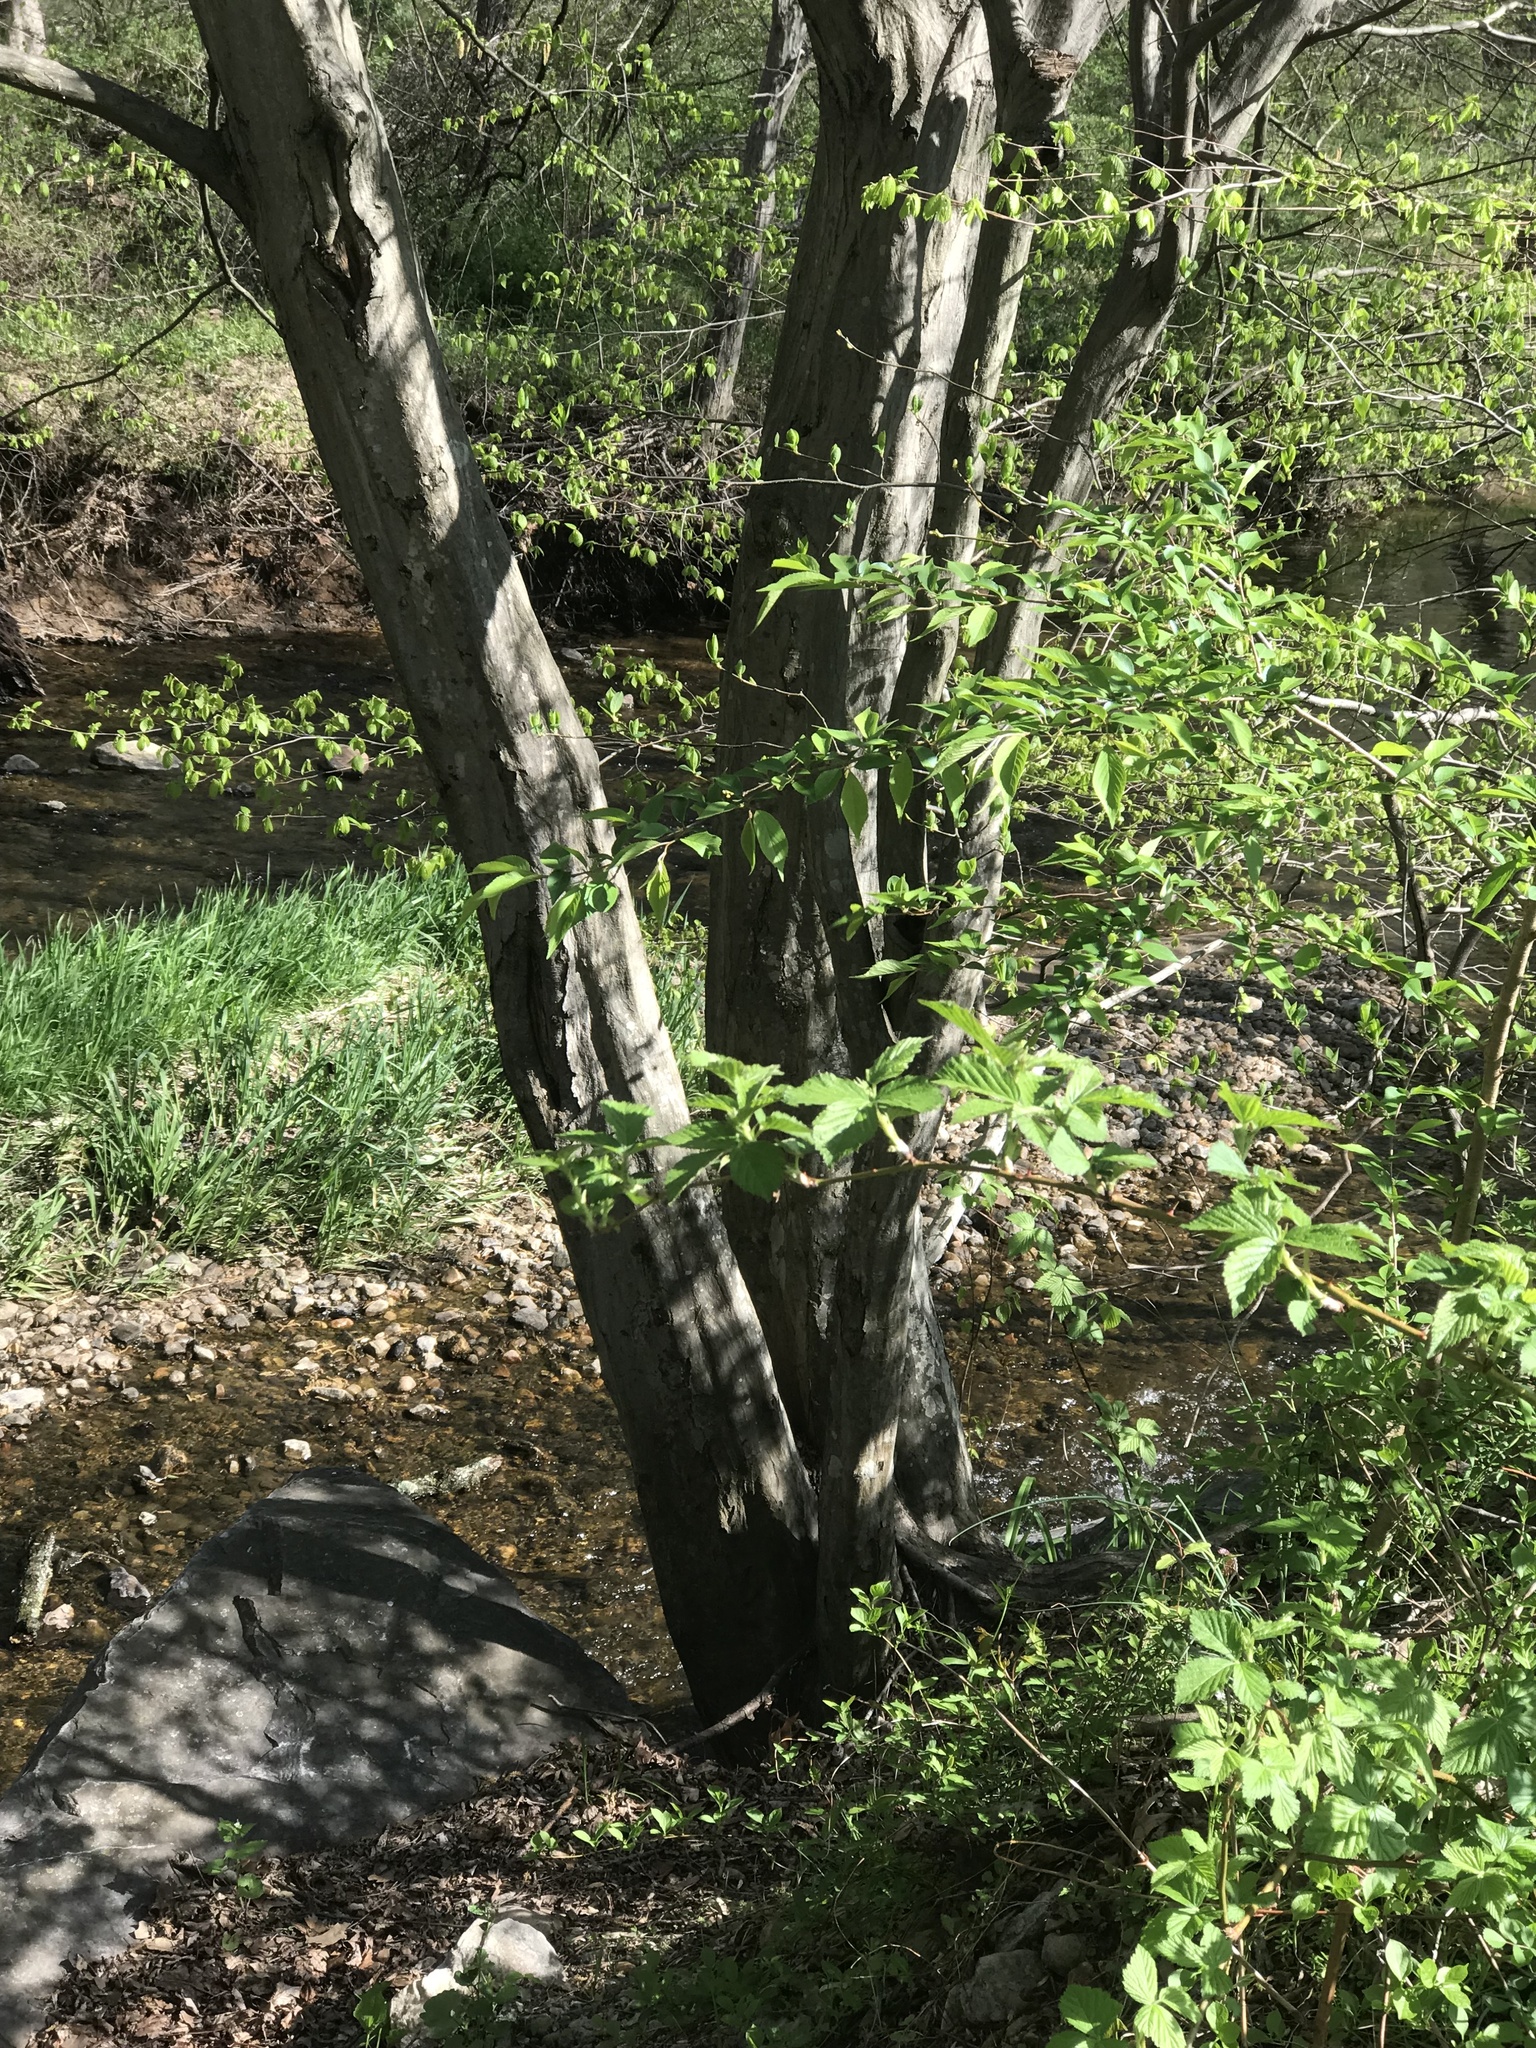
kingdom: Plantae
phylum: Tracheophyta
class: Magnoliopsida
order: Fagales
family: Betulaceae
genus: Carpinus
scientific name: Carpinus caroliniana
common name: American hornbeam
